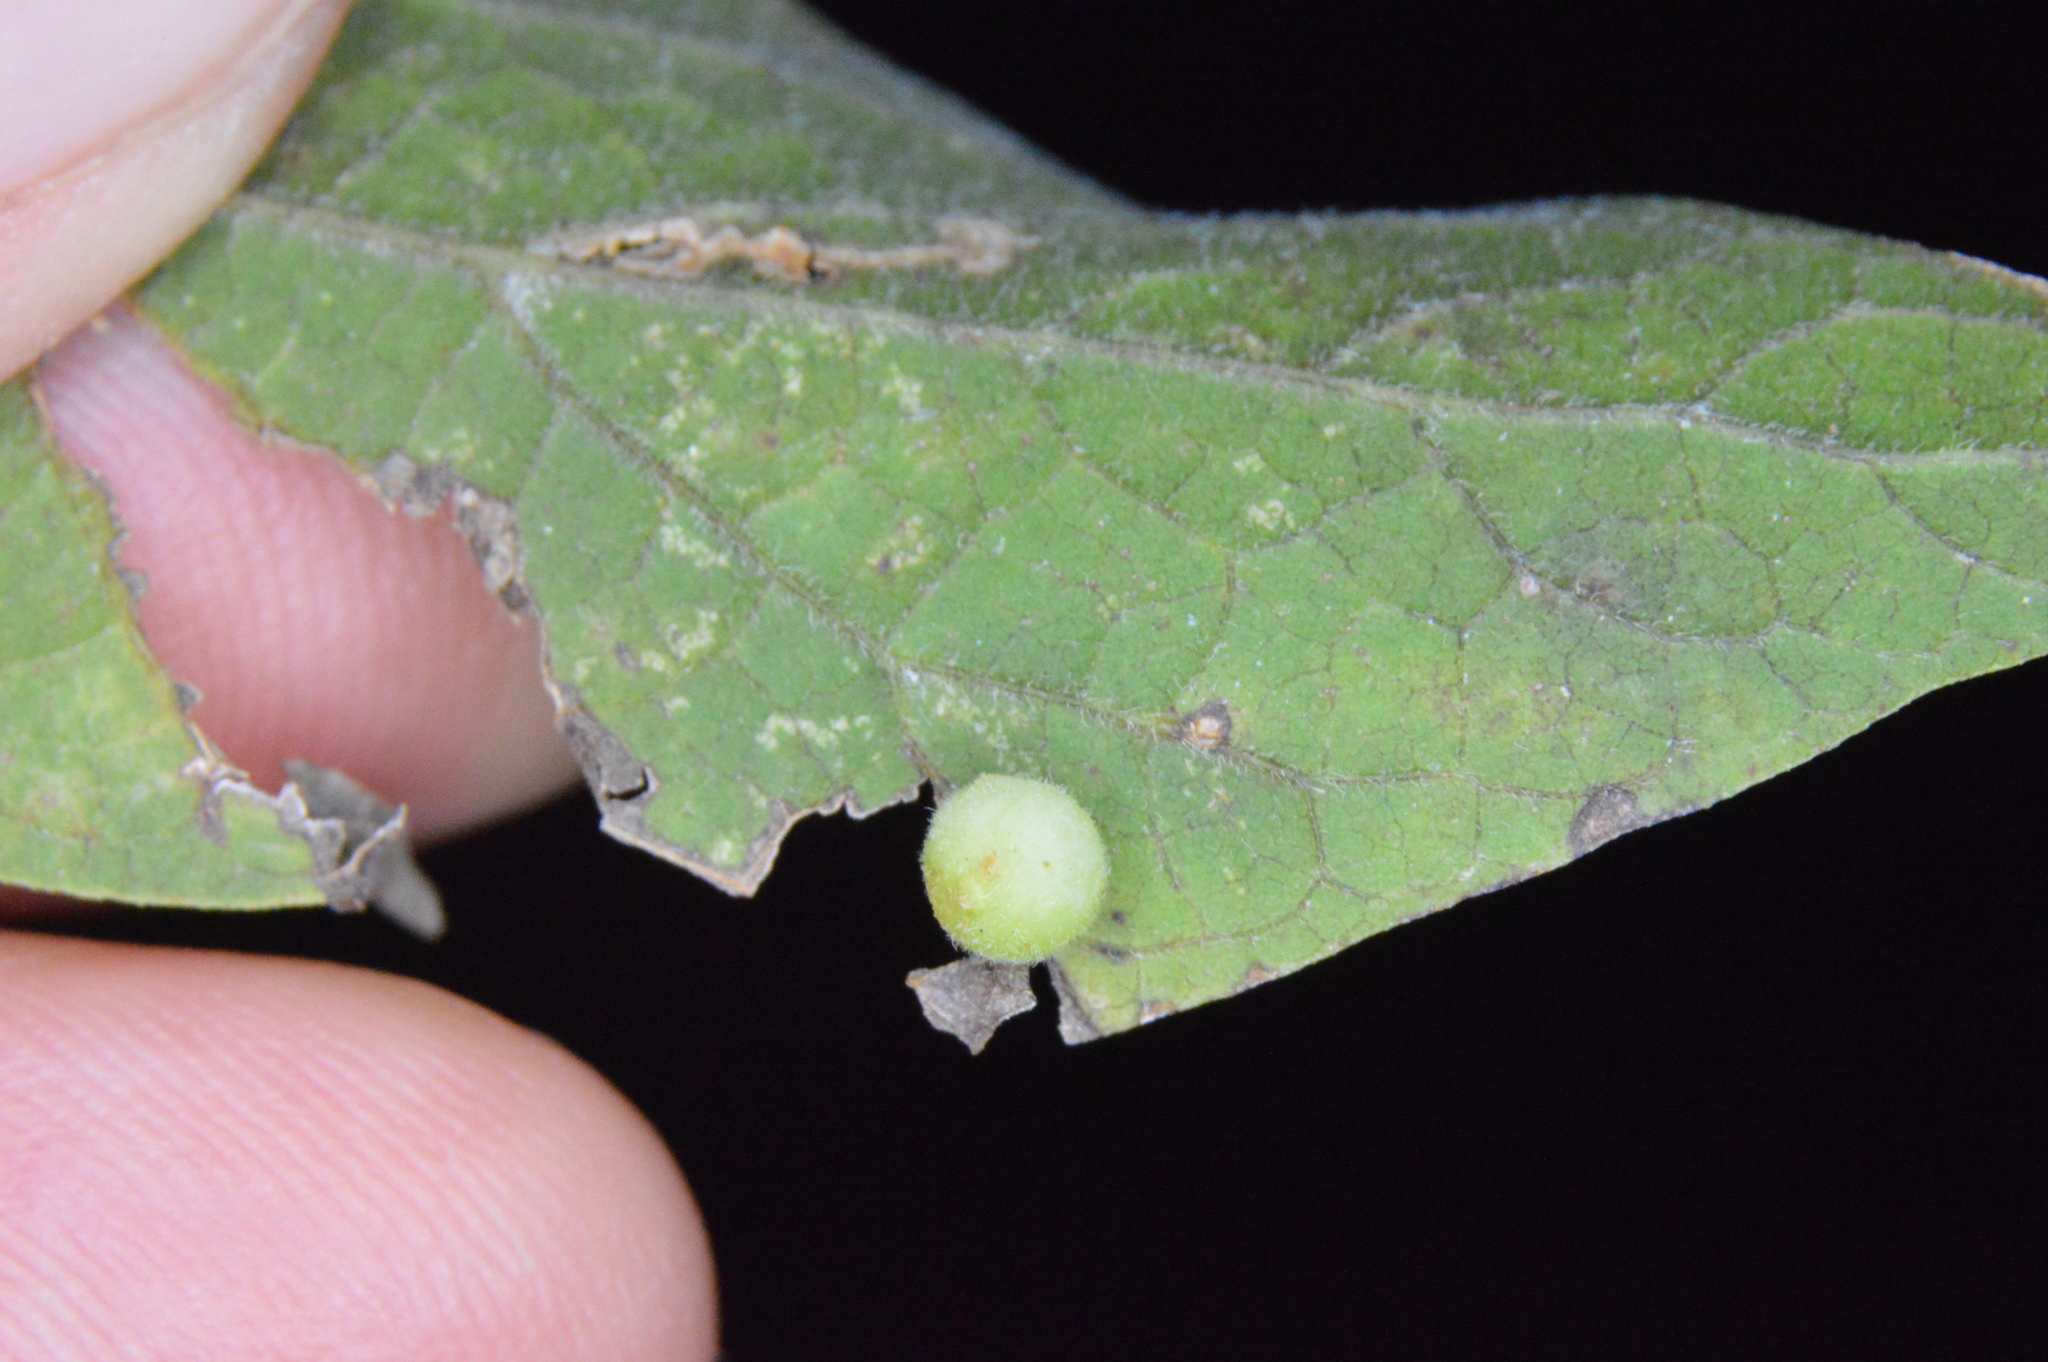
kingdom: Animalia
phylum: Arthropoda
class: Insecta
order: Diptera
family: Cecidomyiidae
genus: Celticecis
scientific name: Celticecis globosa
